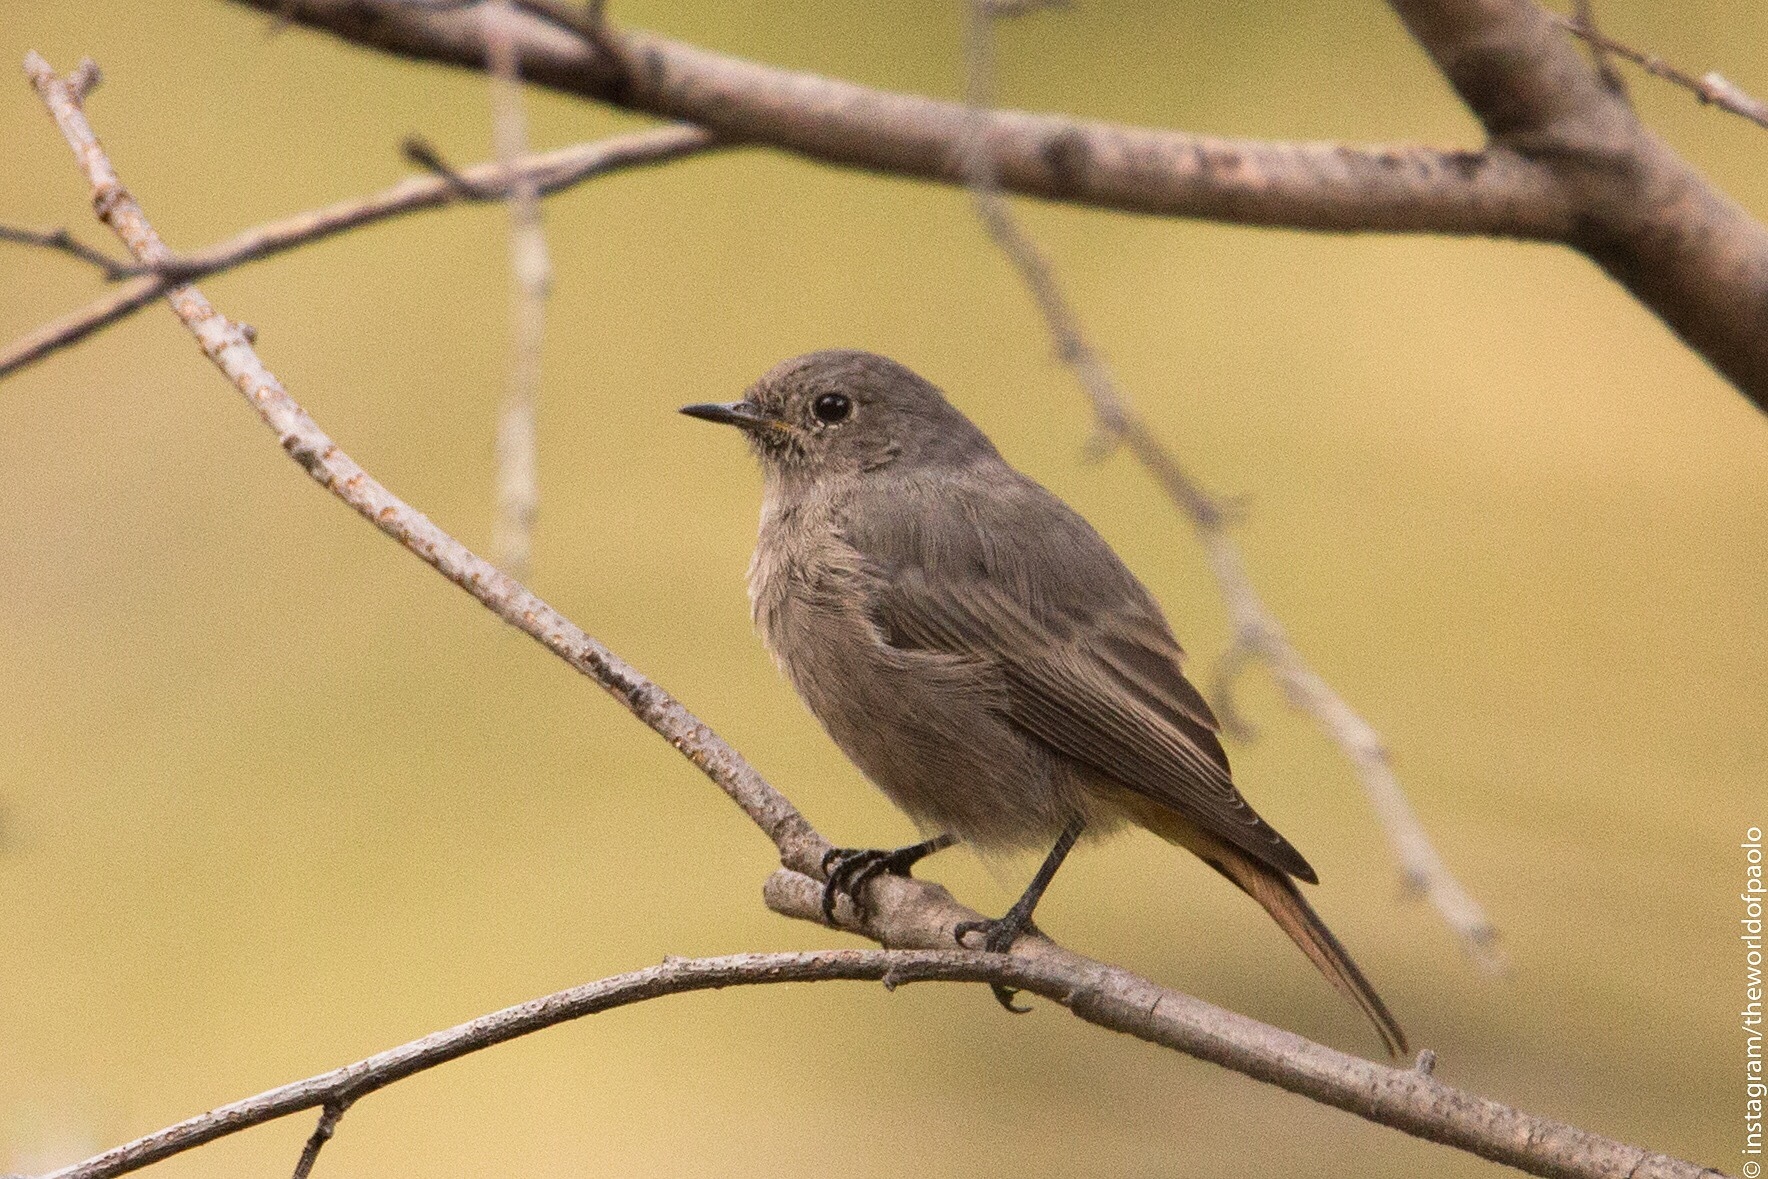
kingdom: Animalia
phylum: Chordata
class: Aves
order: Passeriformes
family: Muscicapidae
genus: Phoenicurus
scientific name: Phoenicurus ochruros
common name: Black redstart
